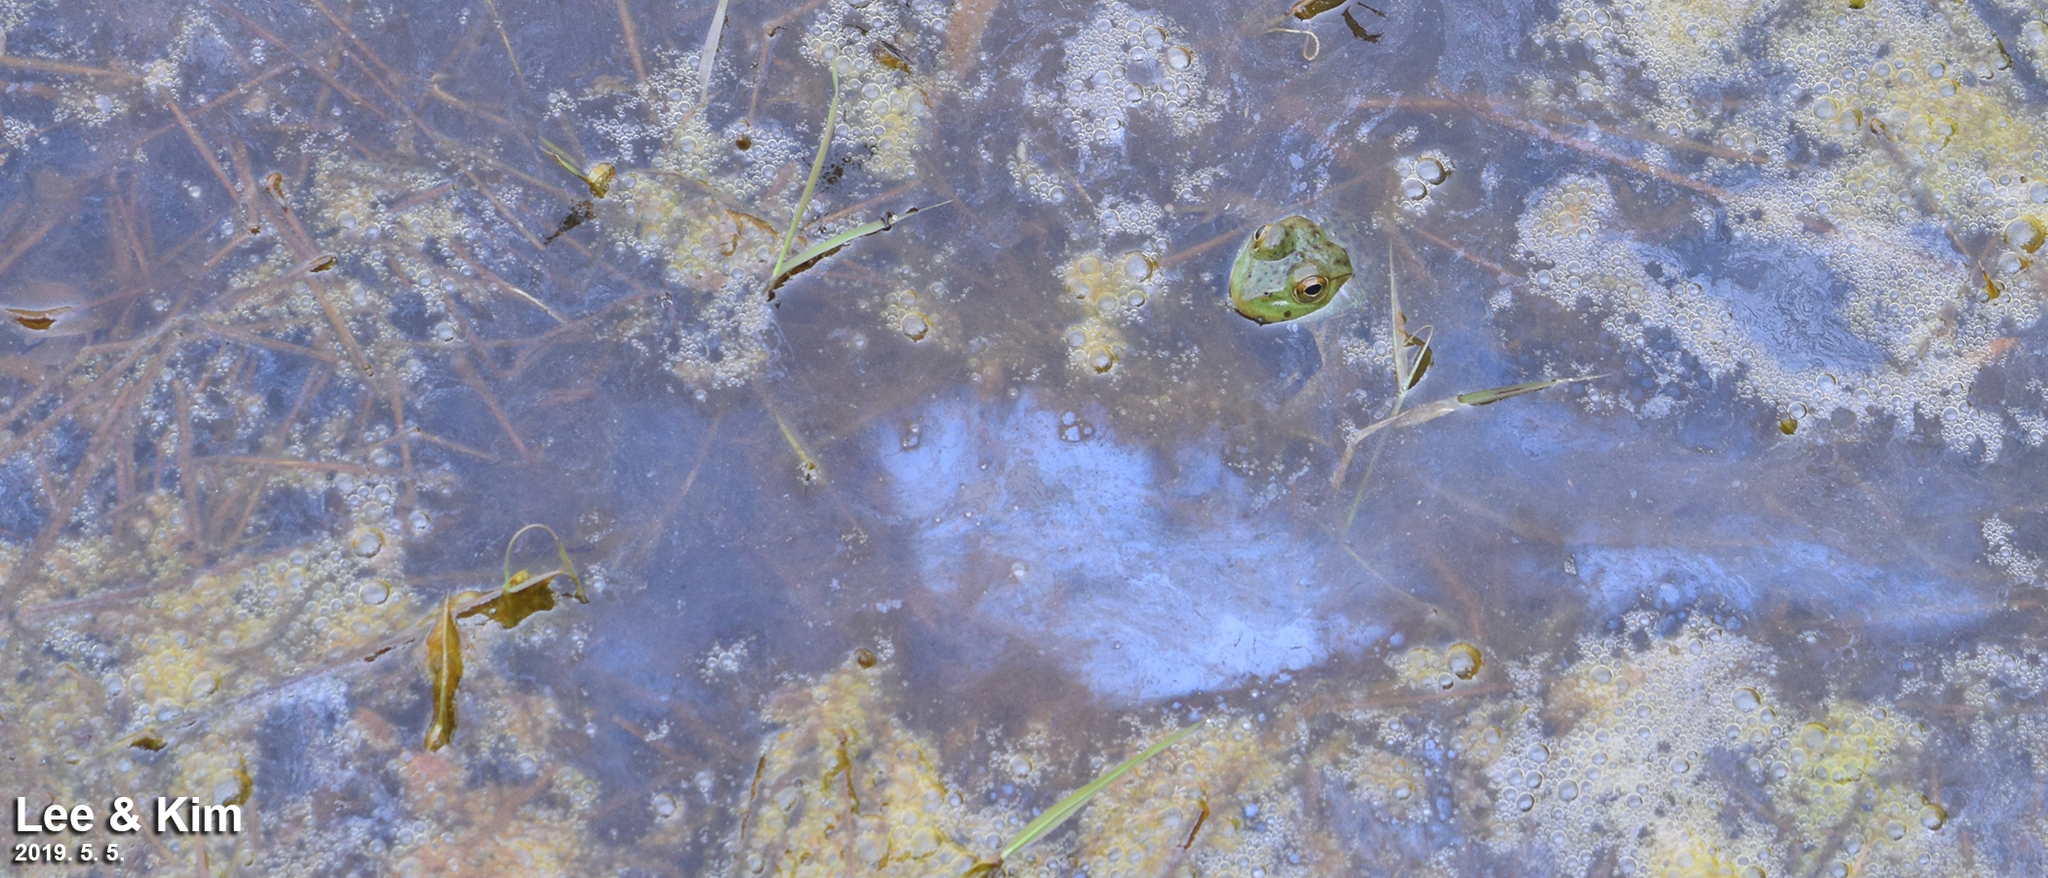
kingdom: Animalia
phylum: Chordata
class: Amphibia
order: Anura
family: Ranidae
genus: Lithobates
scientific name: Lithobates catesbeianus
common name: American bullfrog
